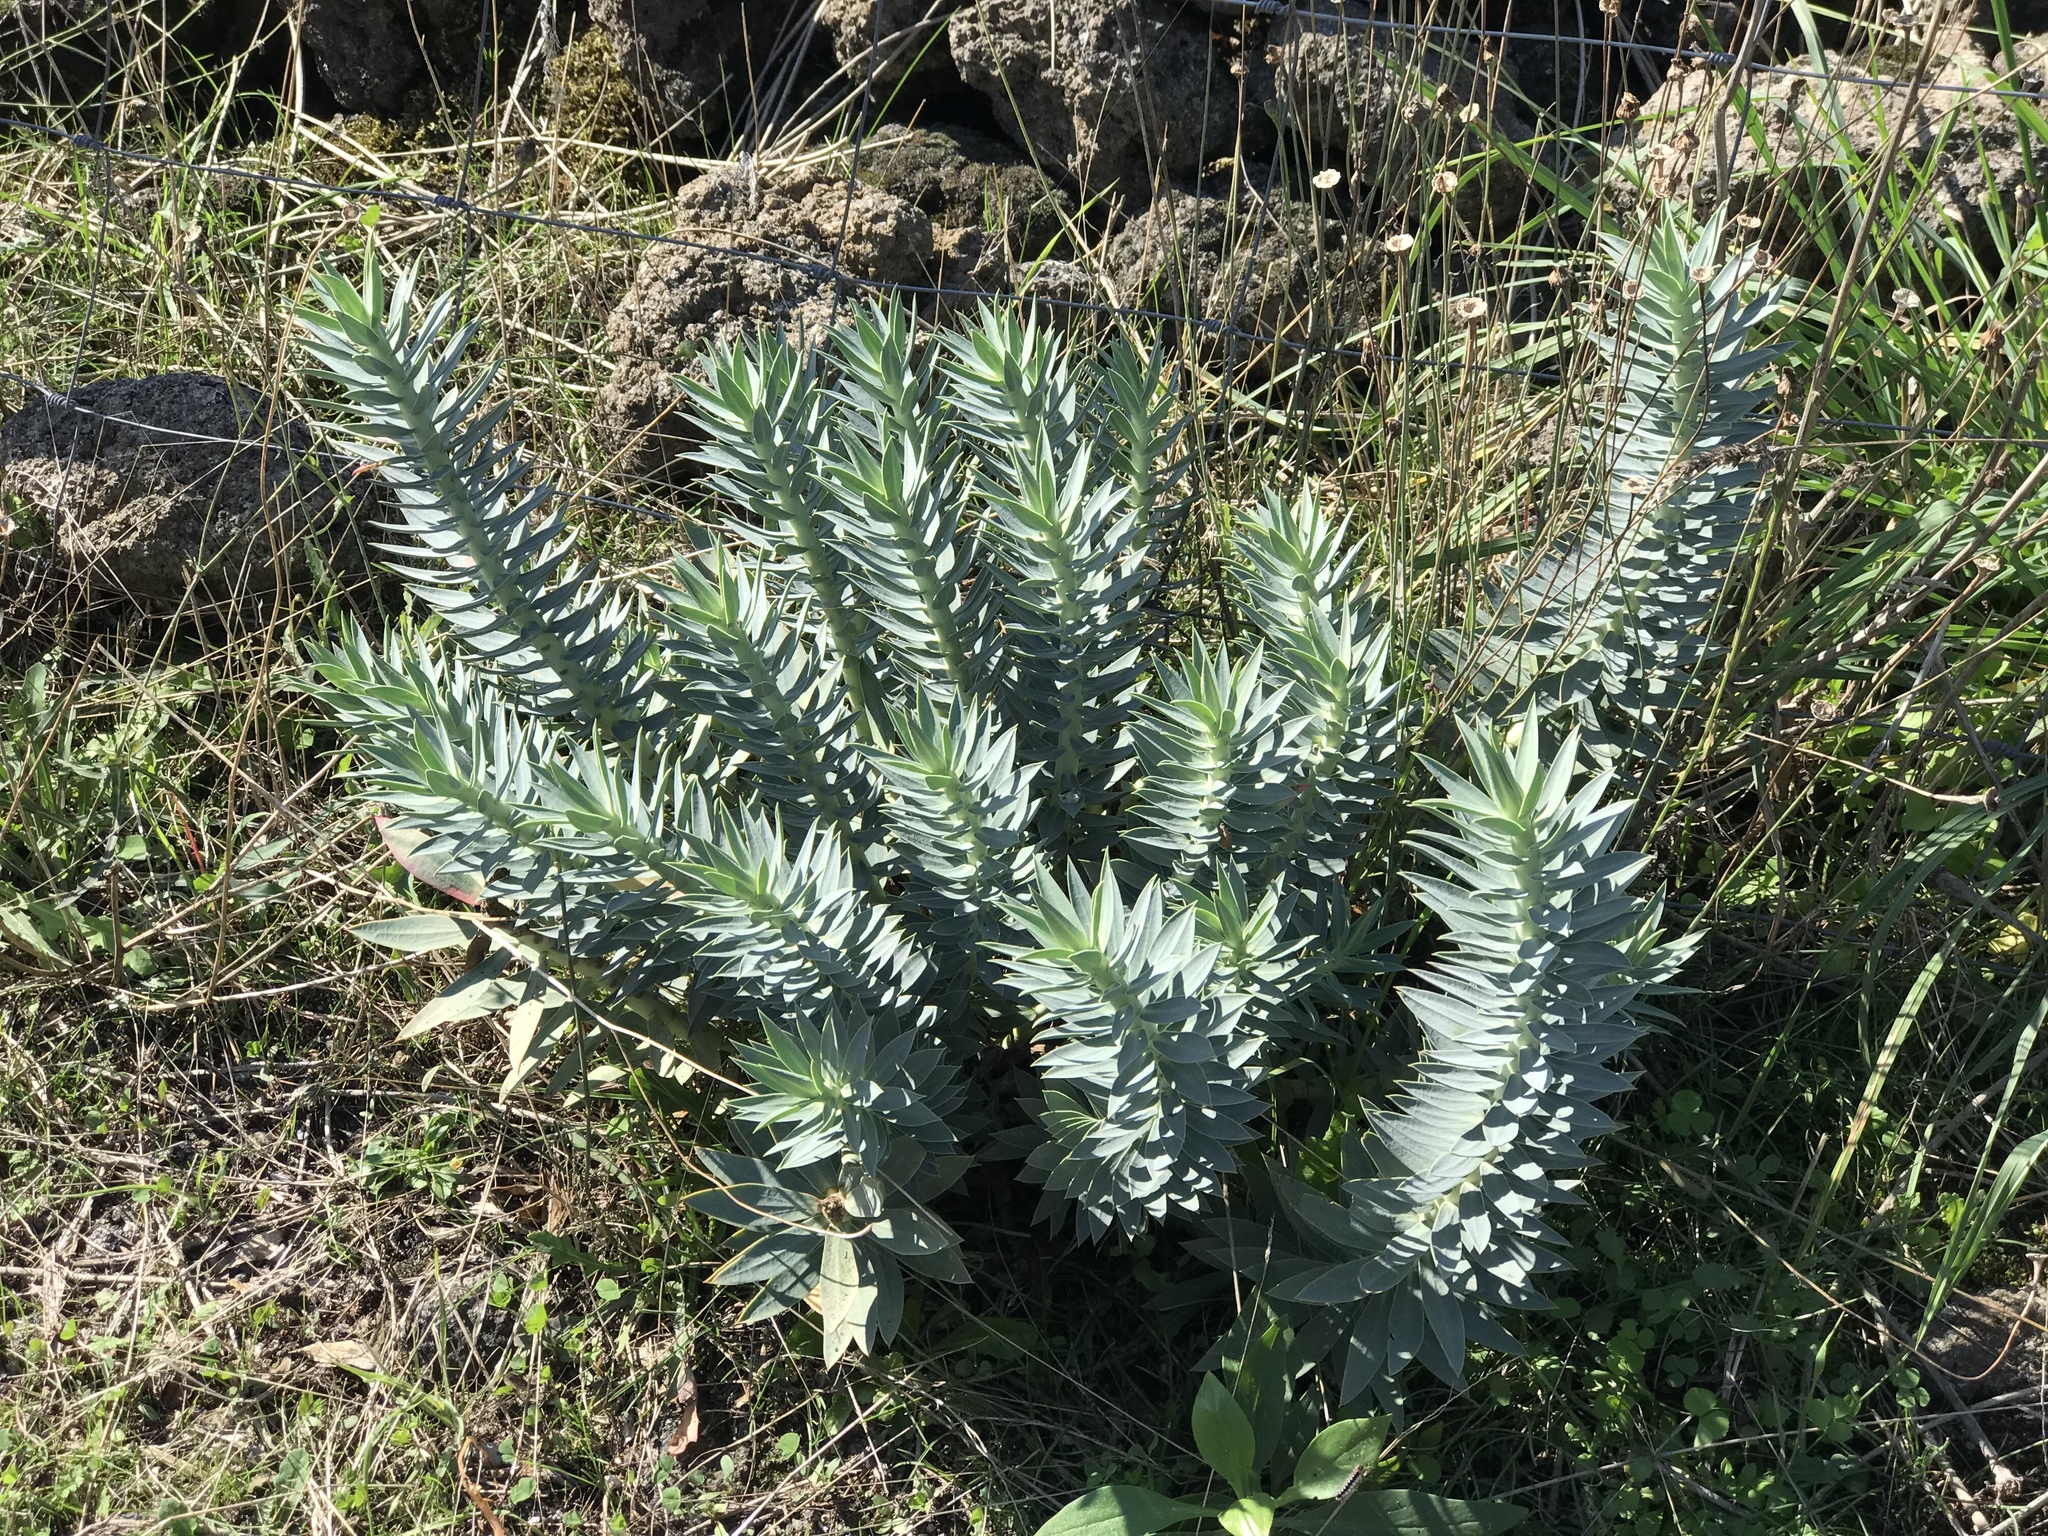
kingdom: Plantae
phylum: Tracheophyta
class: Magnoliopsida
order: Malpighiales
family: Euphorbiaceae
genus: Euphorbia
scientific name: Euphorbia rigida
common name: Upright myrtle spurge
